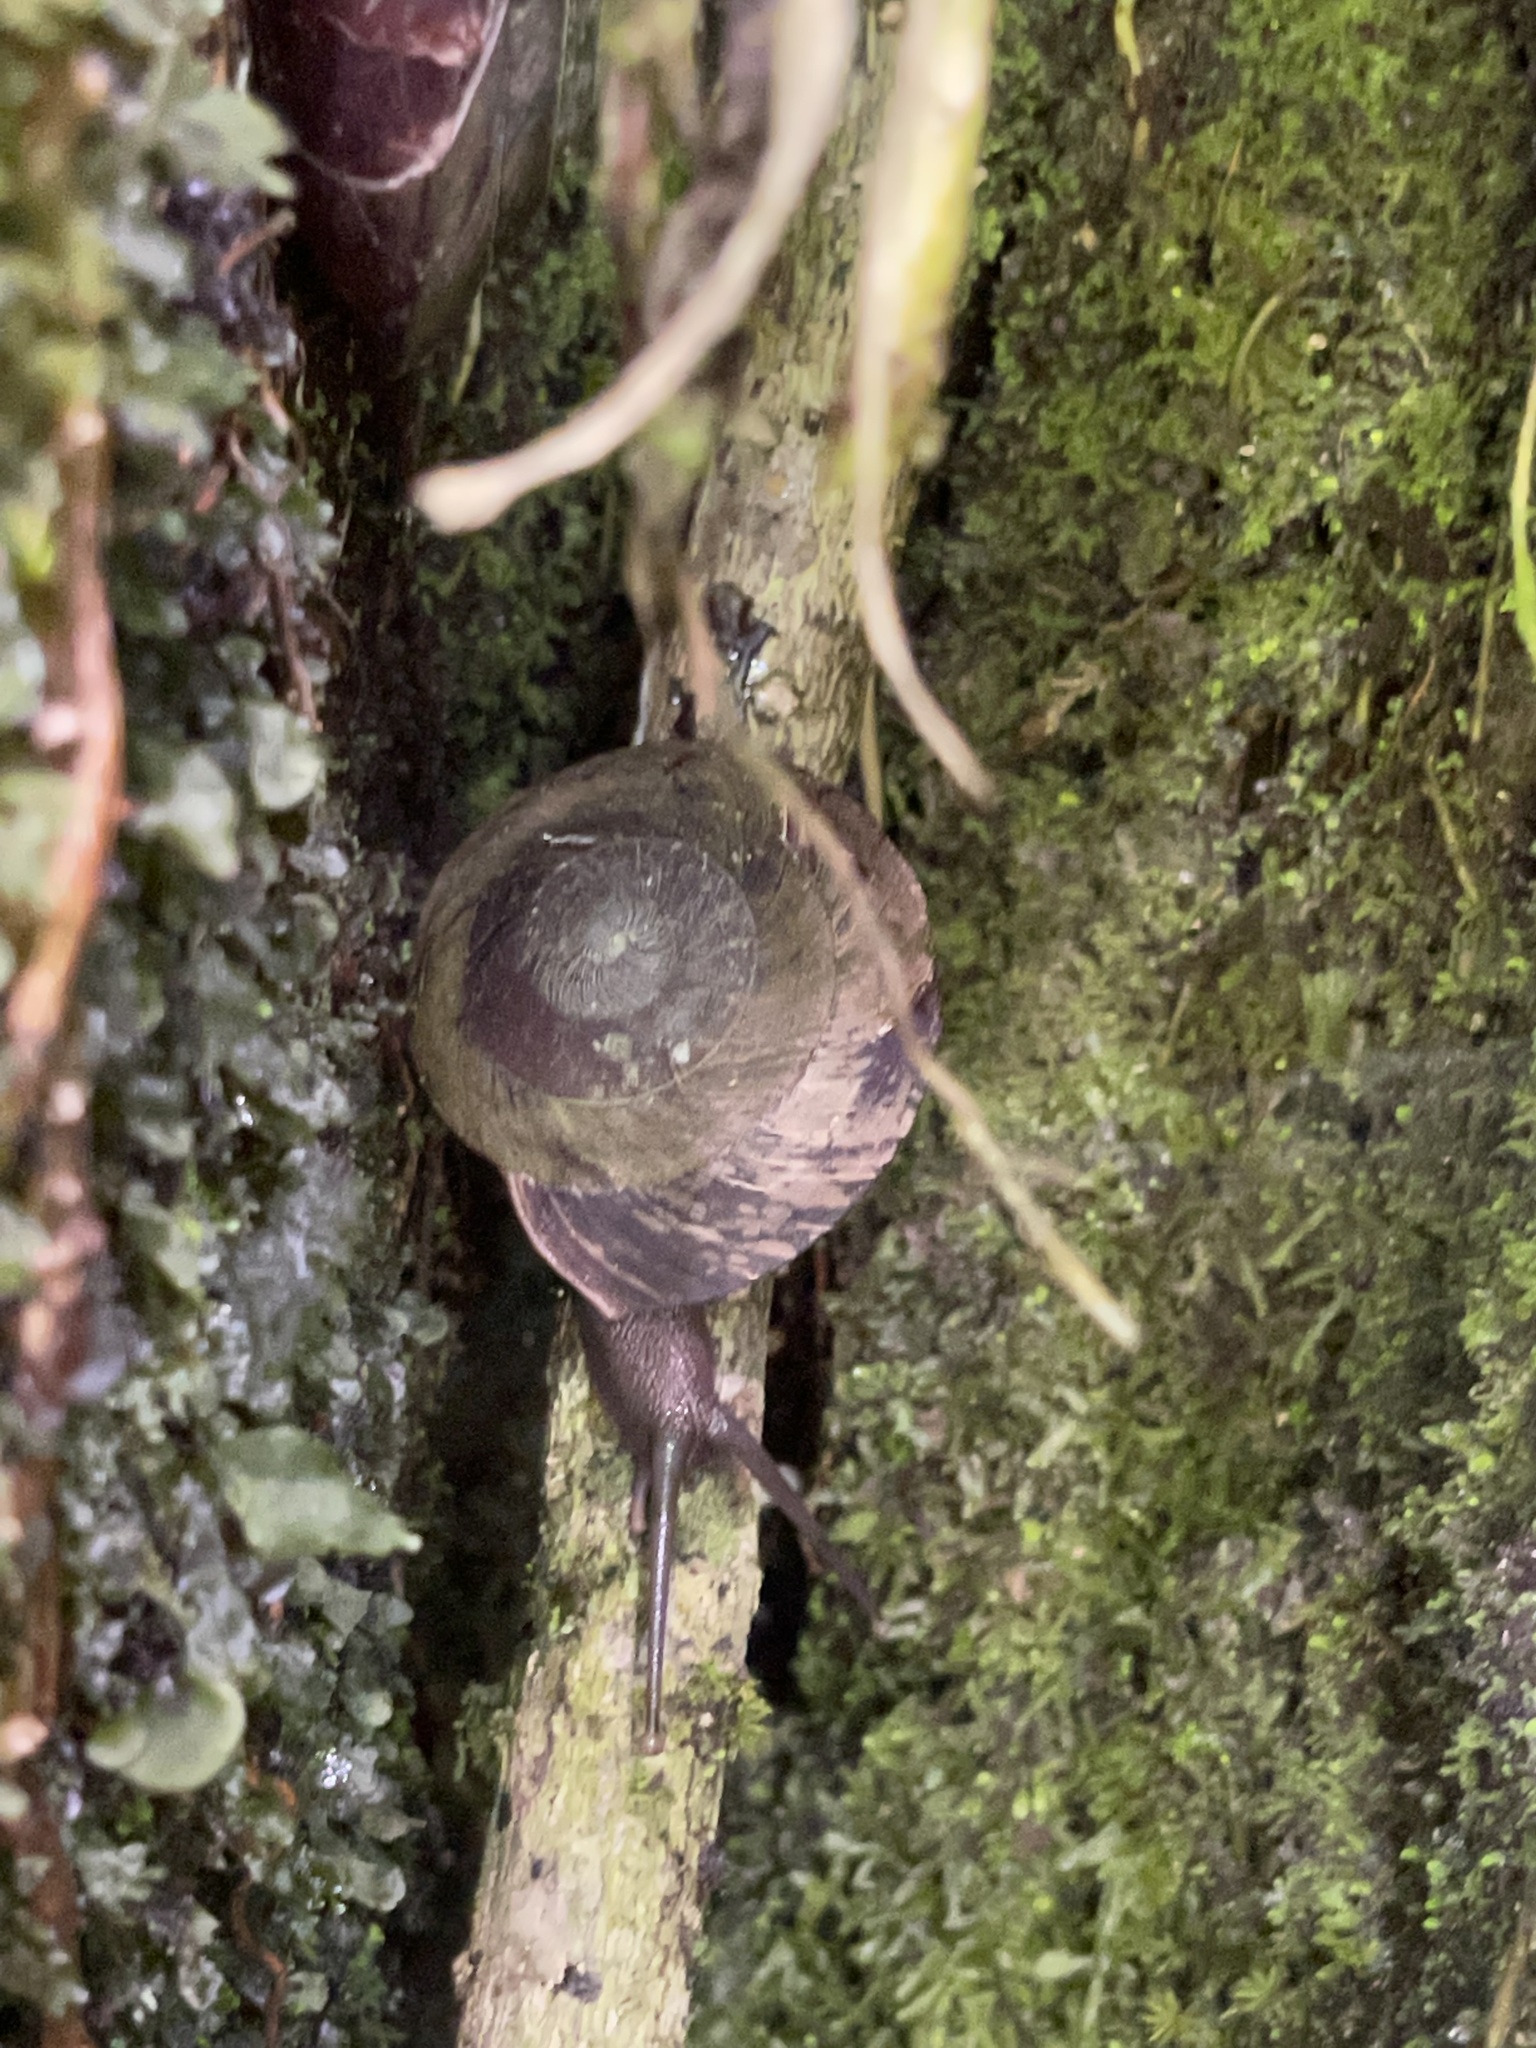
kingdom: Animalia
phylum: Mollusca
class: Gastropoda
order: Stylommatophora
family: Solaropsidae
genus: Caracolus
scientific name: Caracolus carocolla
